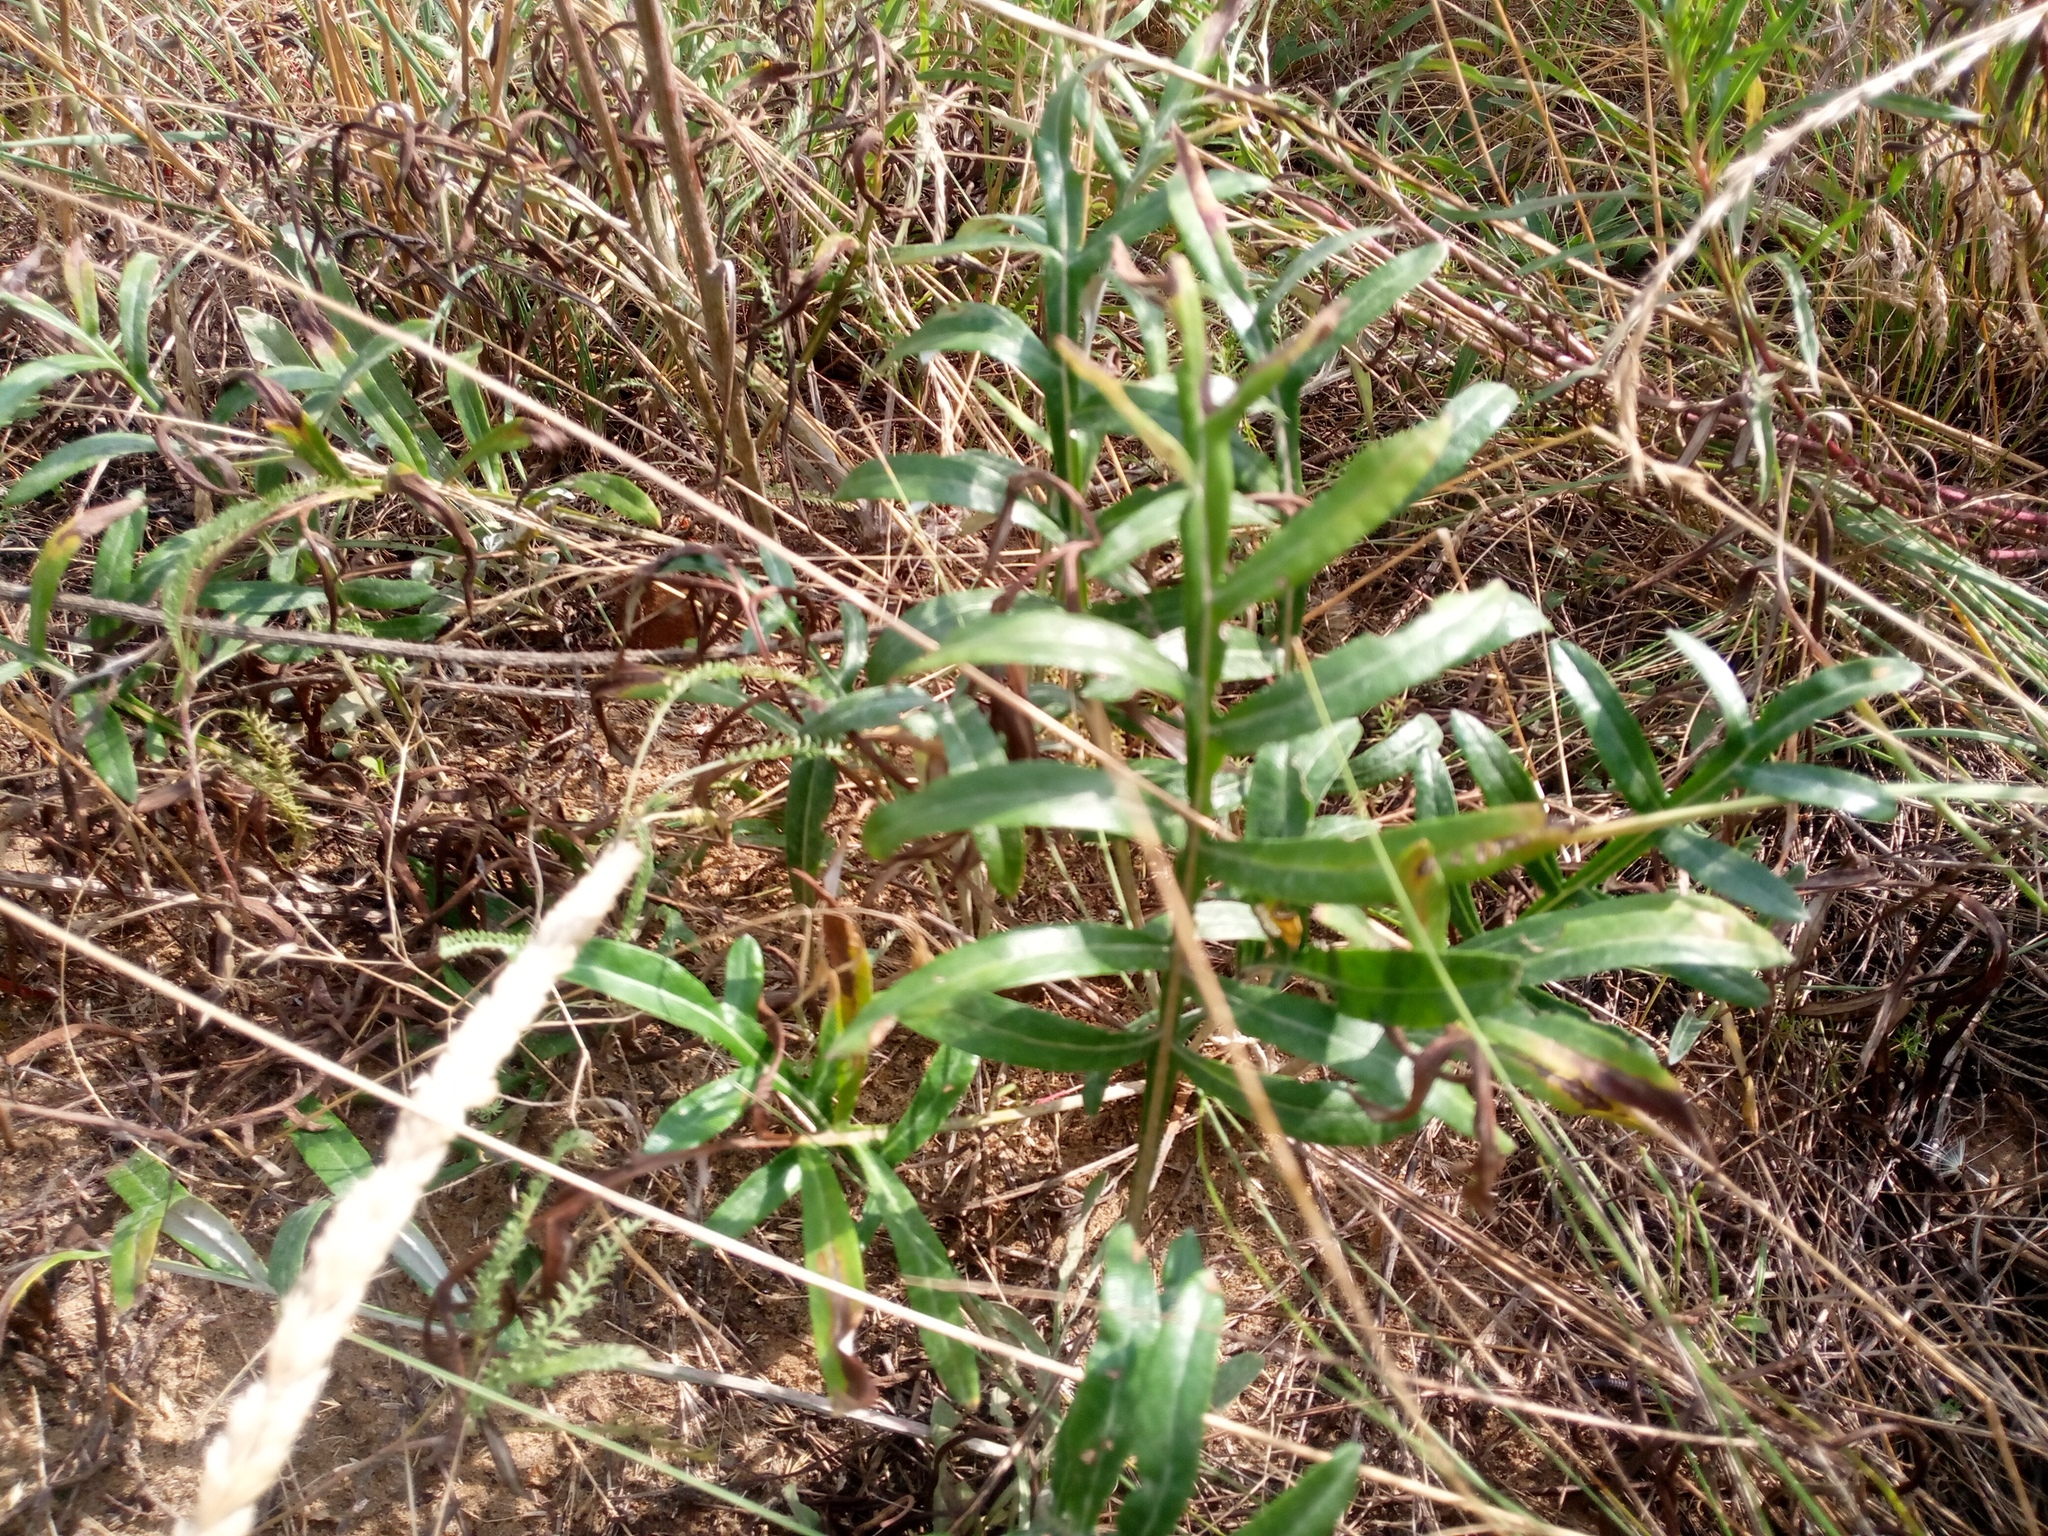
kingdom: Plantae
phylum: Tracheophyta
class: Magnoliopsida
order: Asterales
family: Asteraceae
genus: Jurinea
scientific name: Jurinea cyanoides
